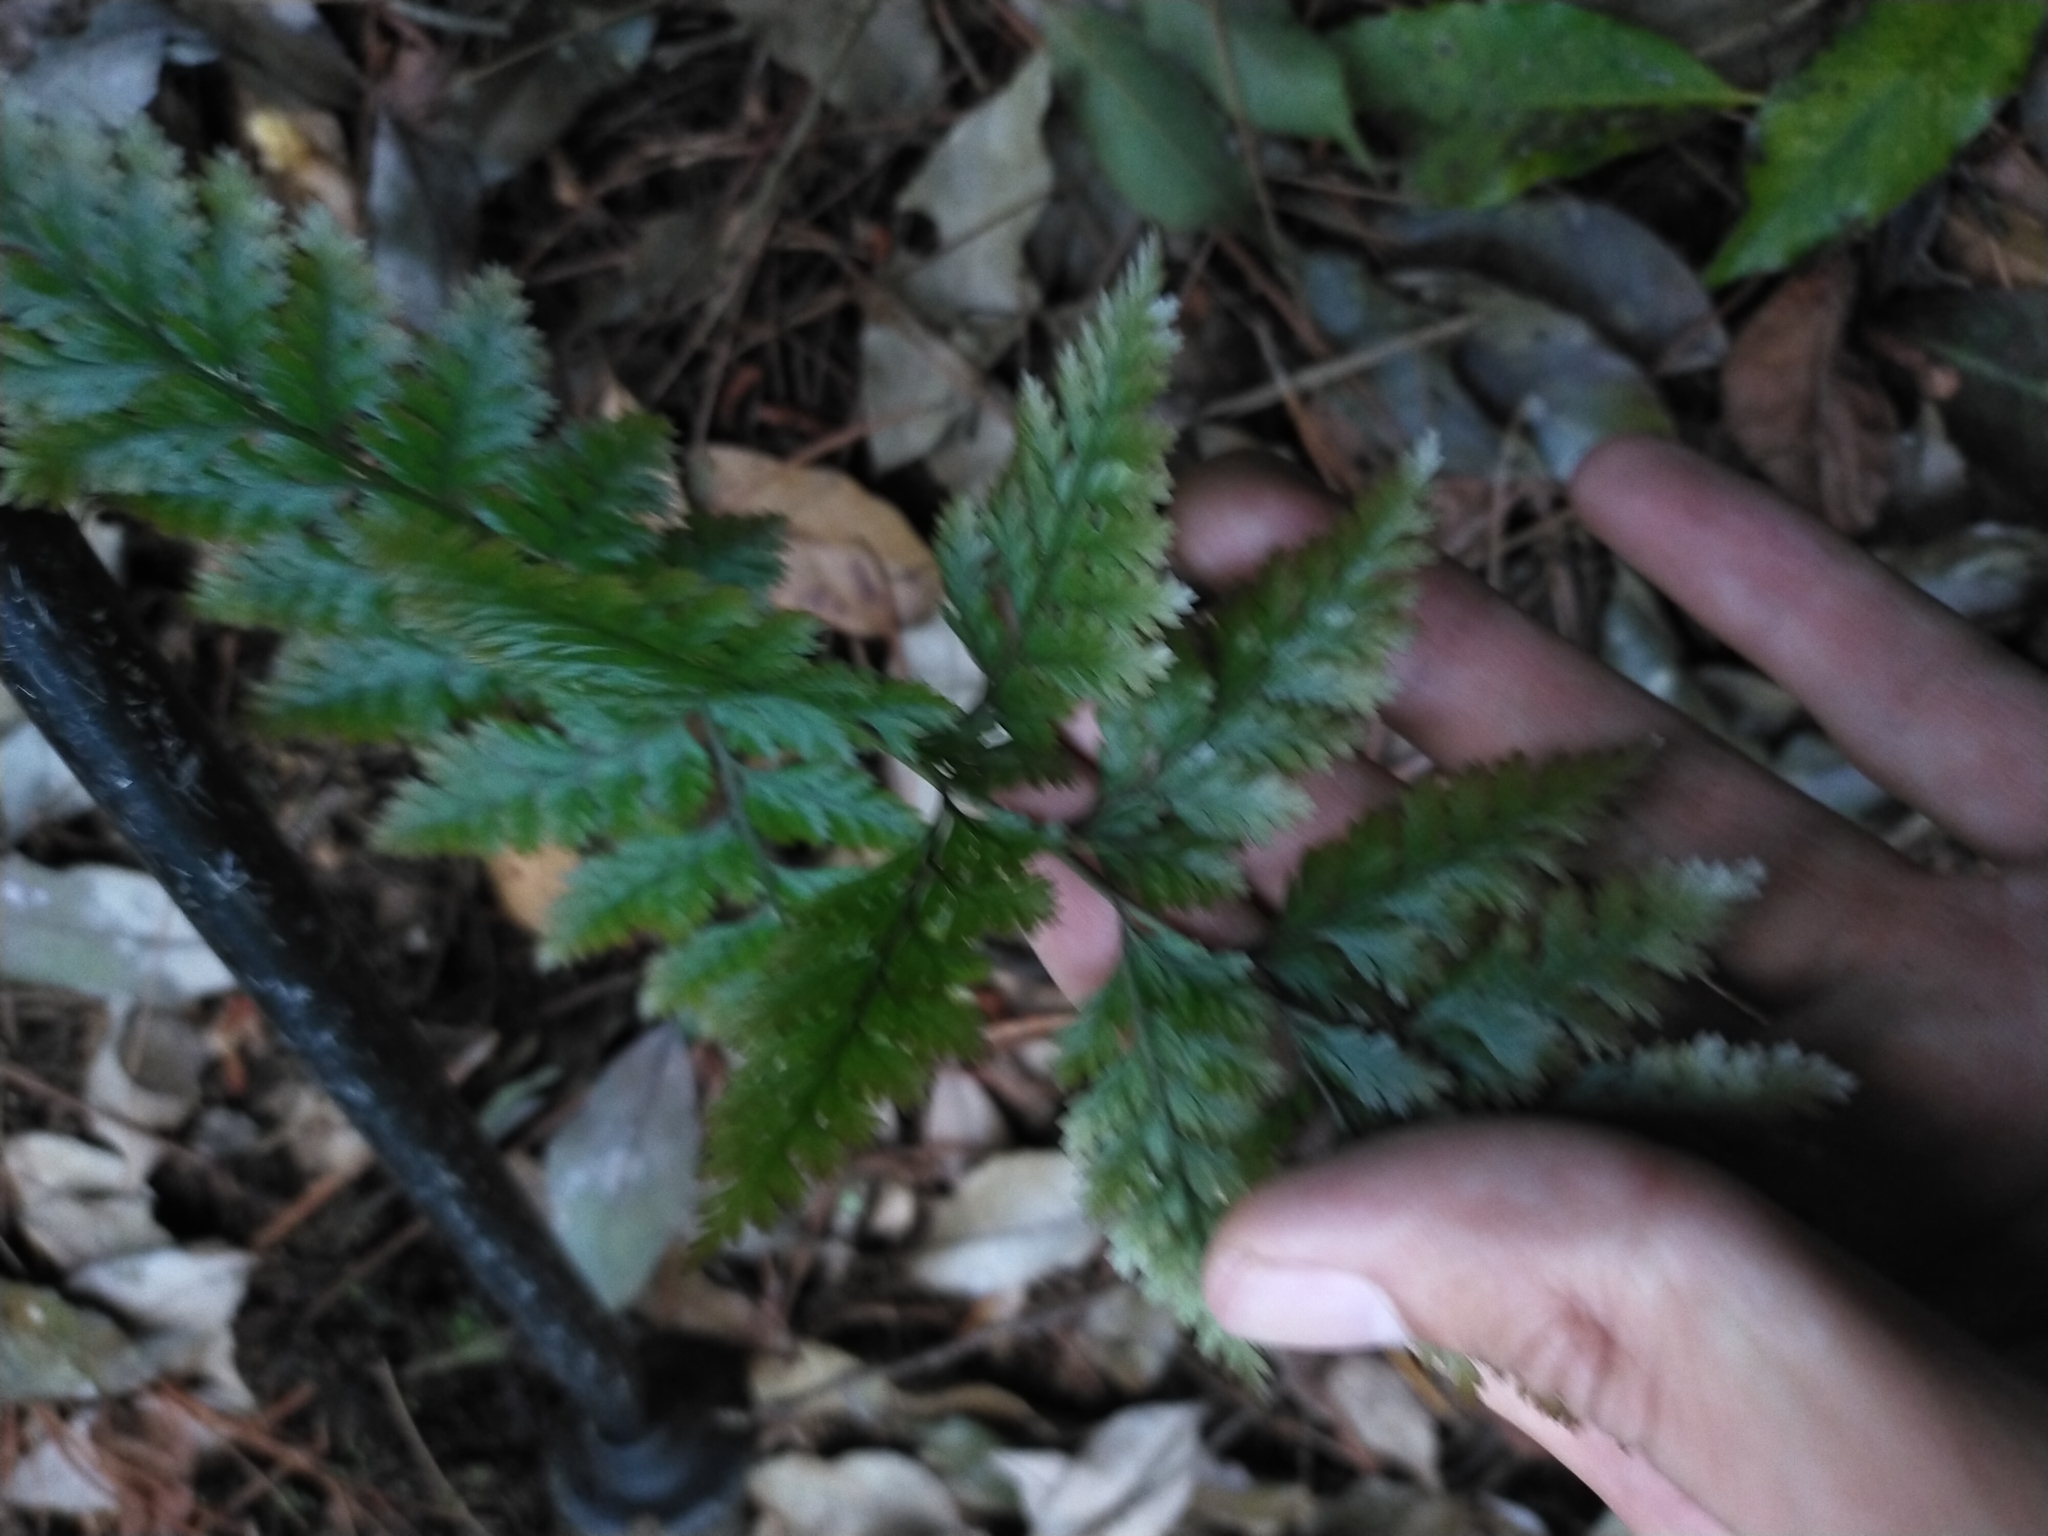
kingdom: Plantae
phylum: Tracheophyta
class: Polypodiopsida
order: Polypodiales
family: Davalliaceae
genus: Davallia
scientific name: Davallia trichomanoides
